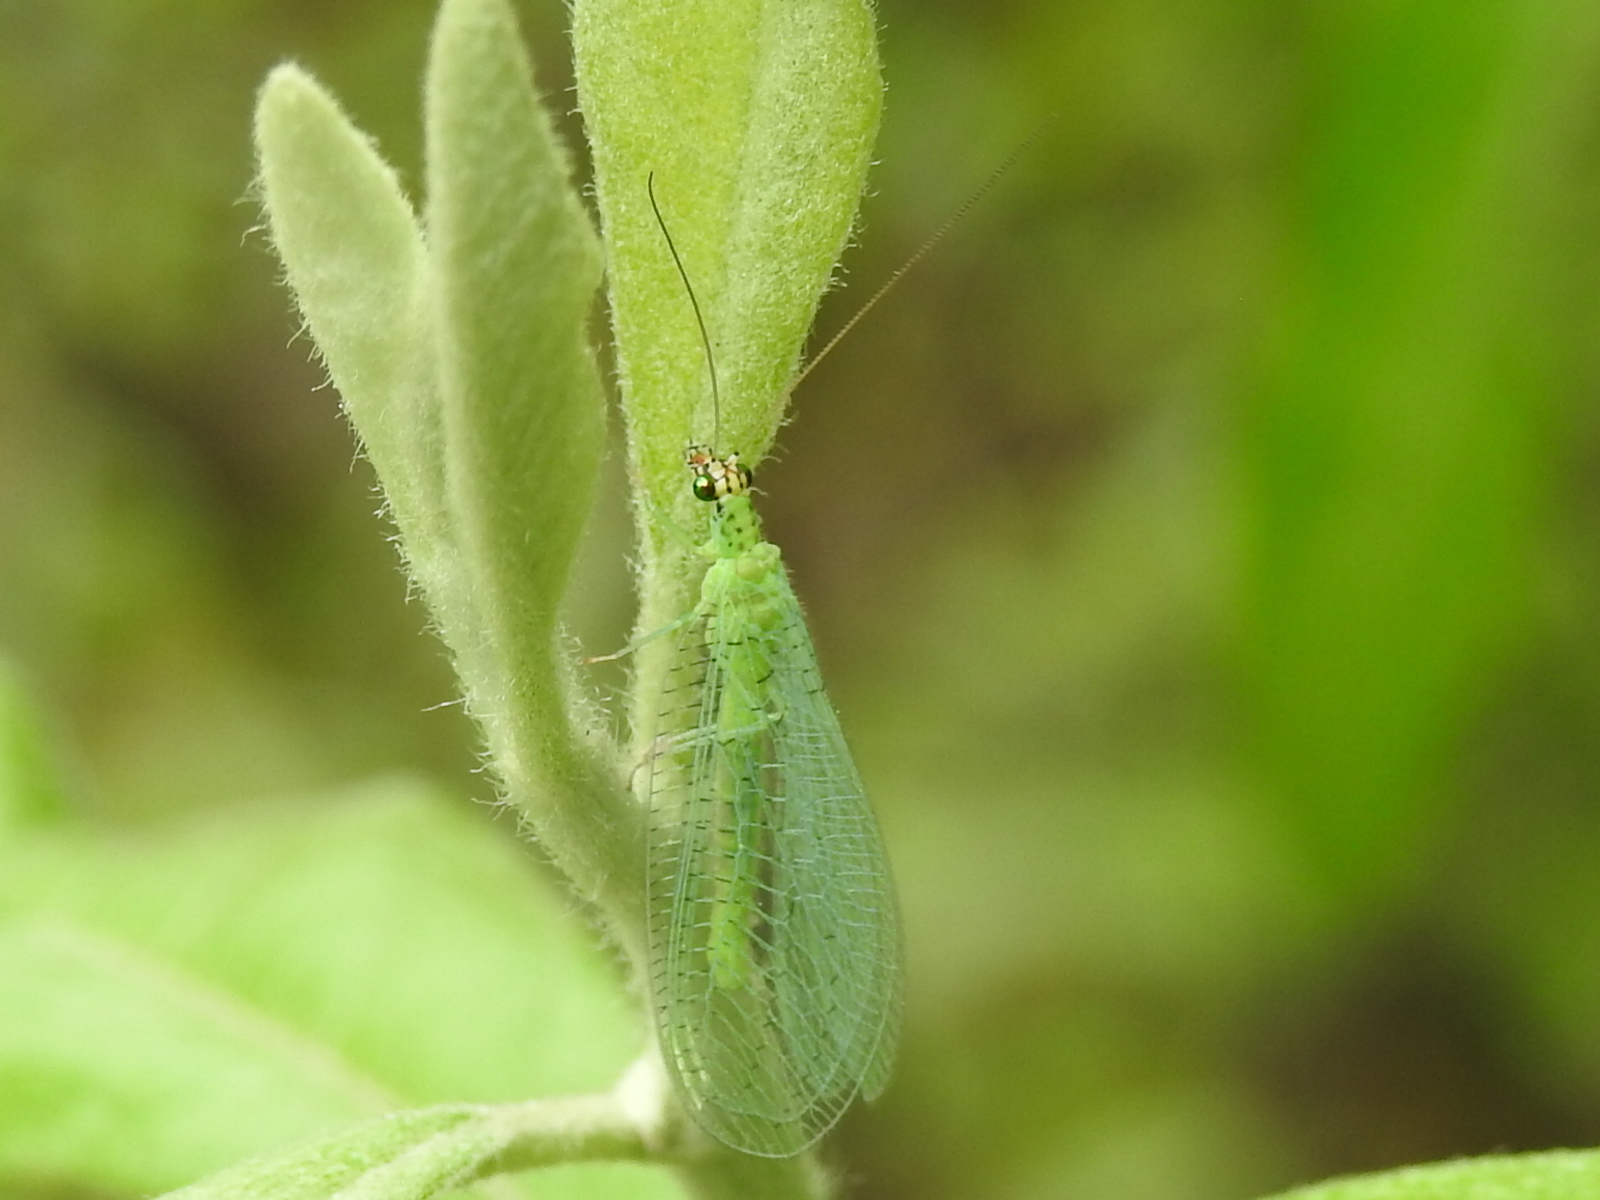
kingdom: Animalia
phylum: Arthropoda
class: Insecta
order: Neuroptera
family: Chrysopidae
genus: Chrysopa
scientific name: Chrysopa oculata
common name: Golden-eyed lacewing
